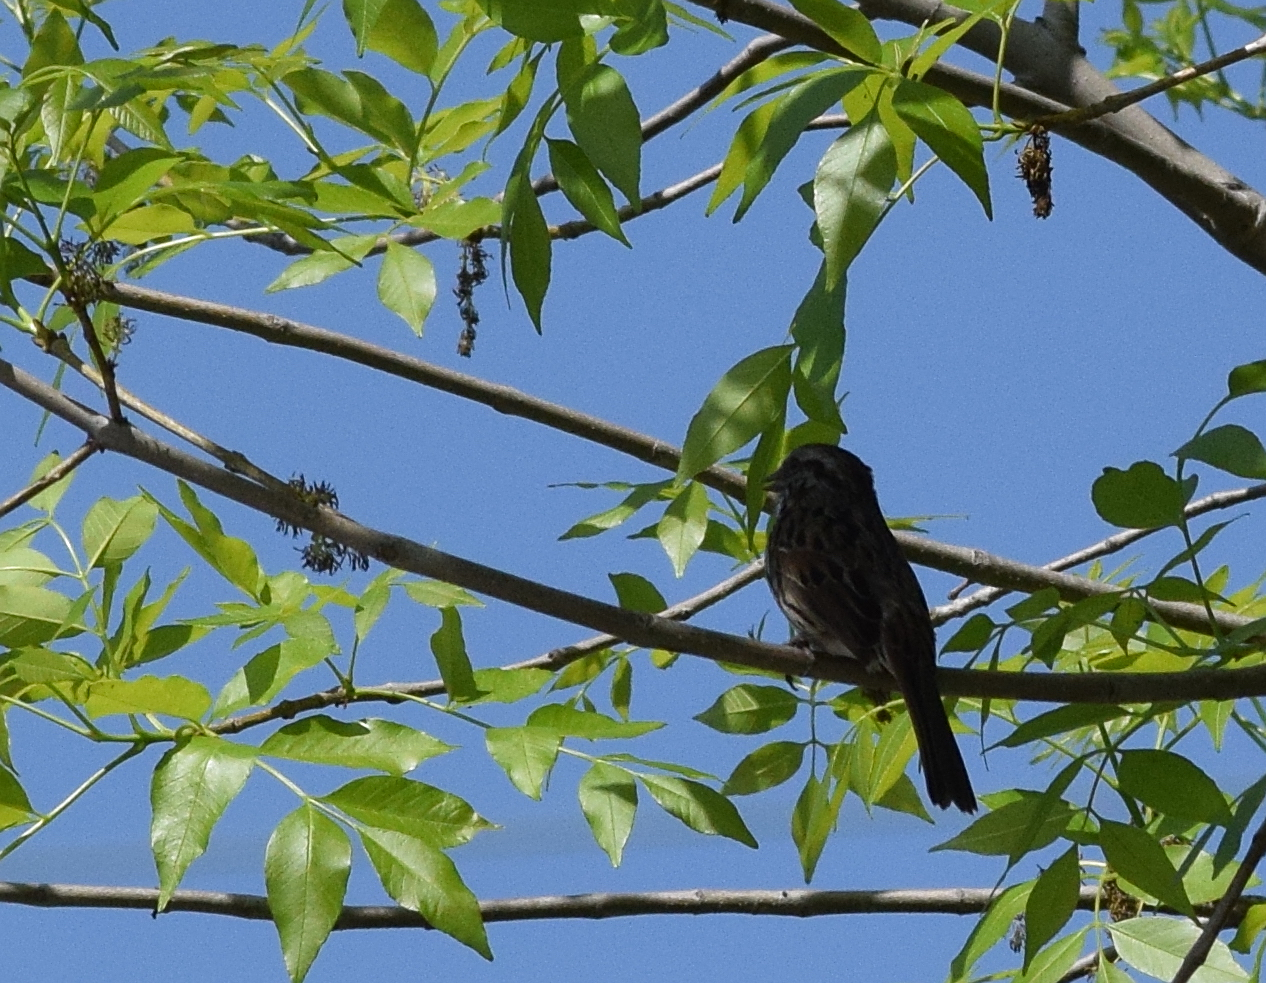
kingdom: Animalia
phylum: Chordata
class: Aves
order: Passeriformes
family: Passerellidae
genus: Melospiza
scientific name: Melospiza melodia
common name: Song sparrow
